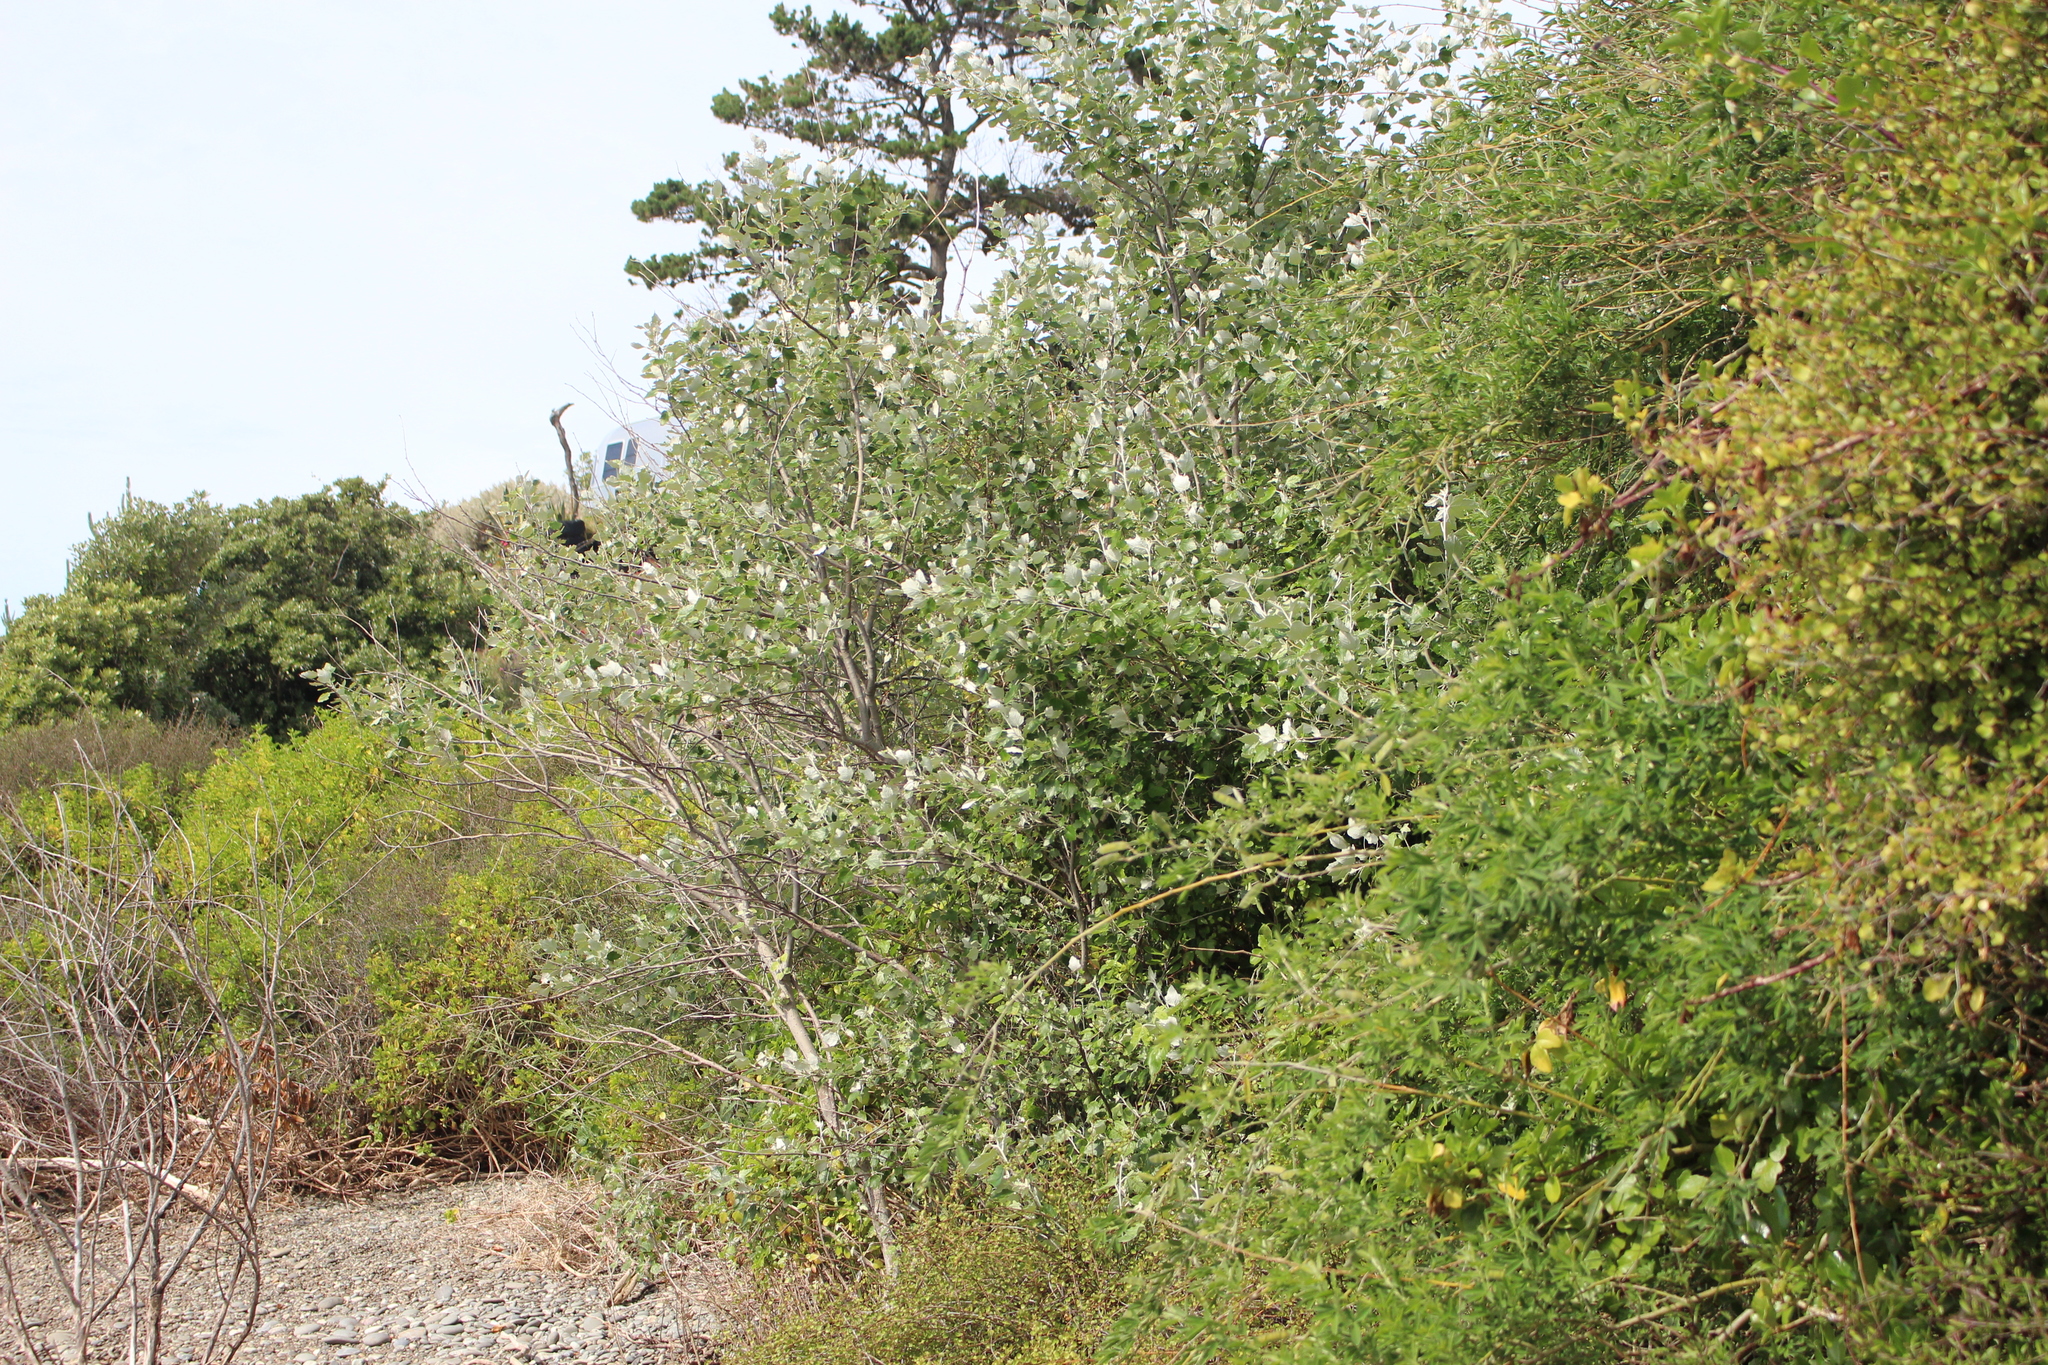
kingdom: Plantae
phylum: Tracheophyta
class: Magnoliopsida
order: Malpighiales
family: Salicaceae
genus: Populus
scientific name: Populus alba
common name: White poplar
